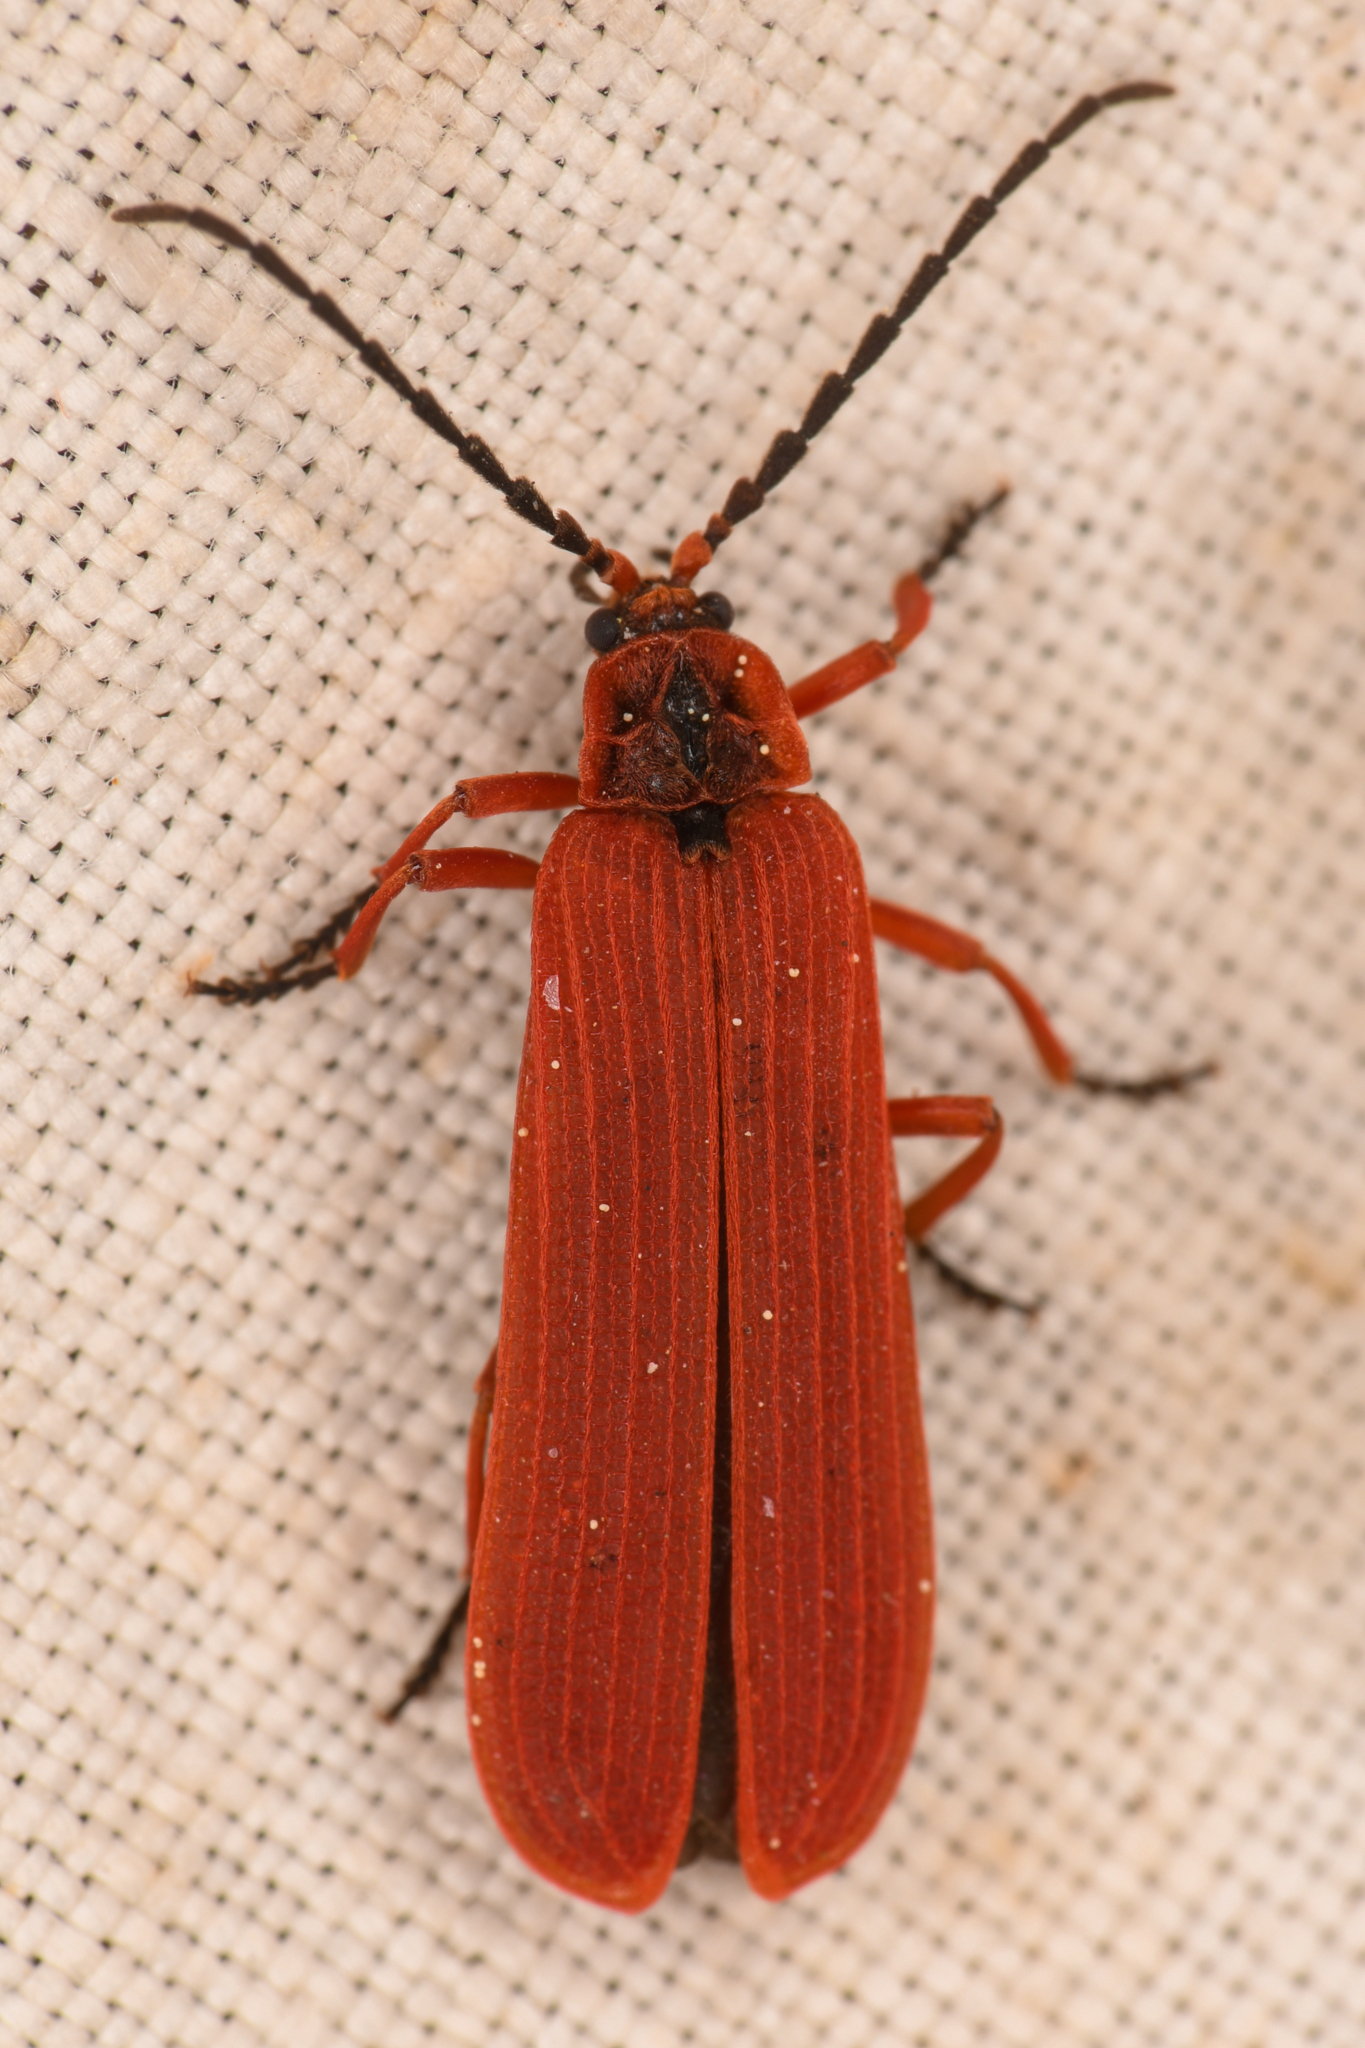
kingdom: Animalia
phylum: Arthropoda
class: Insecta
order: Coleoptera
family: Lycidae
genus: Dictyoptera
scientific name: Dictyoptera simplicipes
